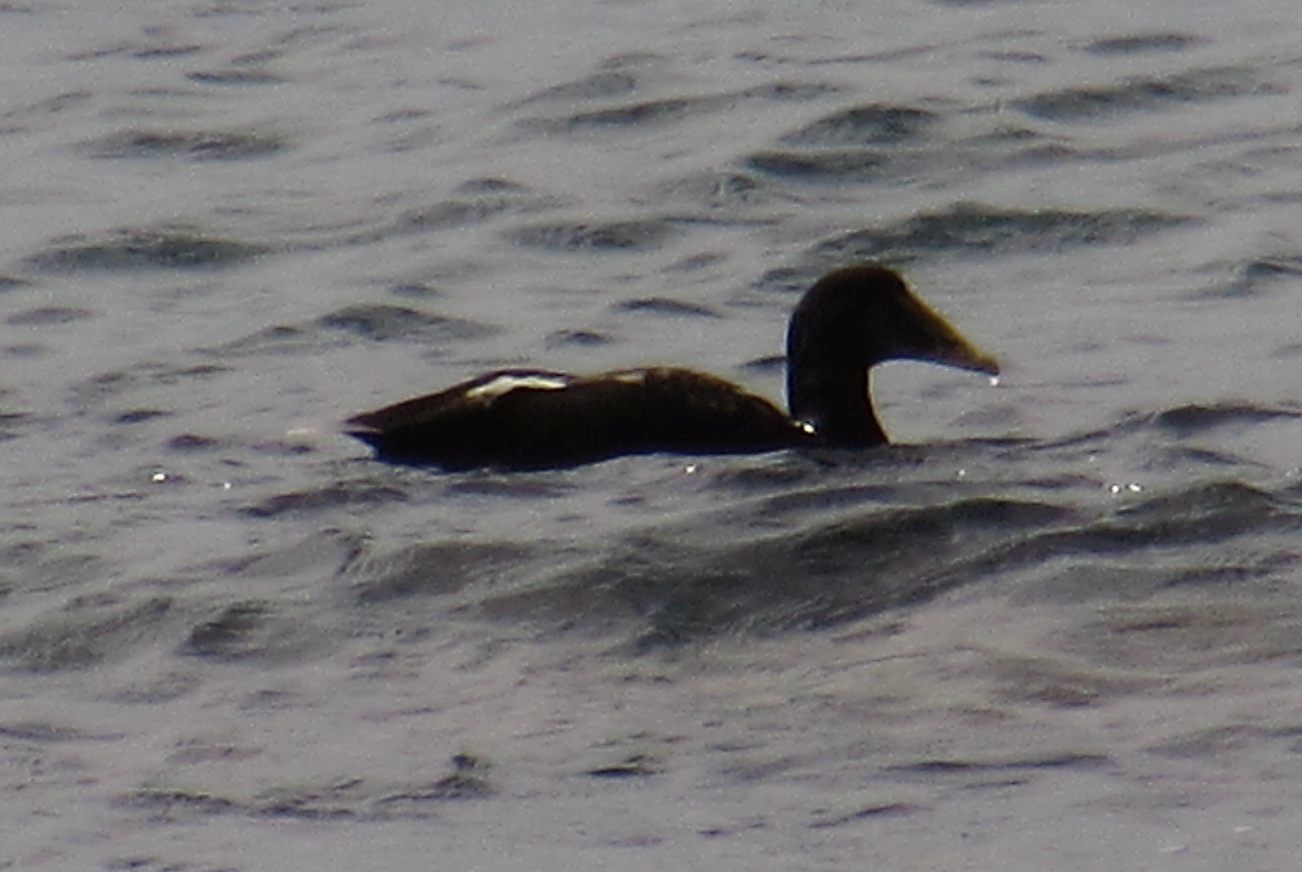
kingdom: Animalia
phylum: Chordata
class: Aves
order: Anseriformes
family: Anatidae
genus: Somateria
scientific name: Somateria mollissima
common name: Common eider
